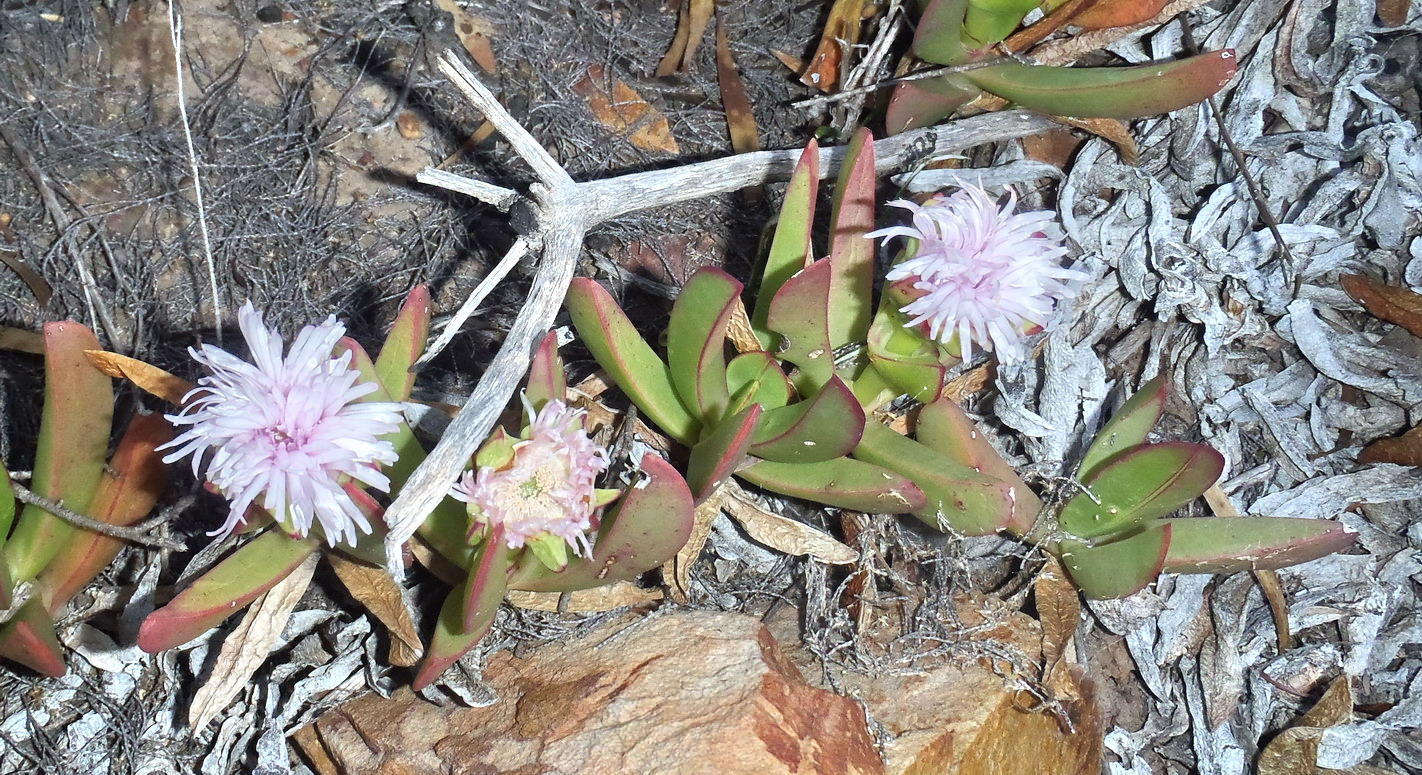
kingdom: Plantae
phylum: Tracheophyta
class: Magnoliopsida
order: Caryophyllales
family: Aizoaceae
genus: Carpobrotus
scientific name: Carpobrotus mellei
